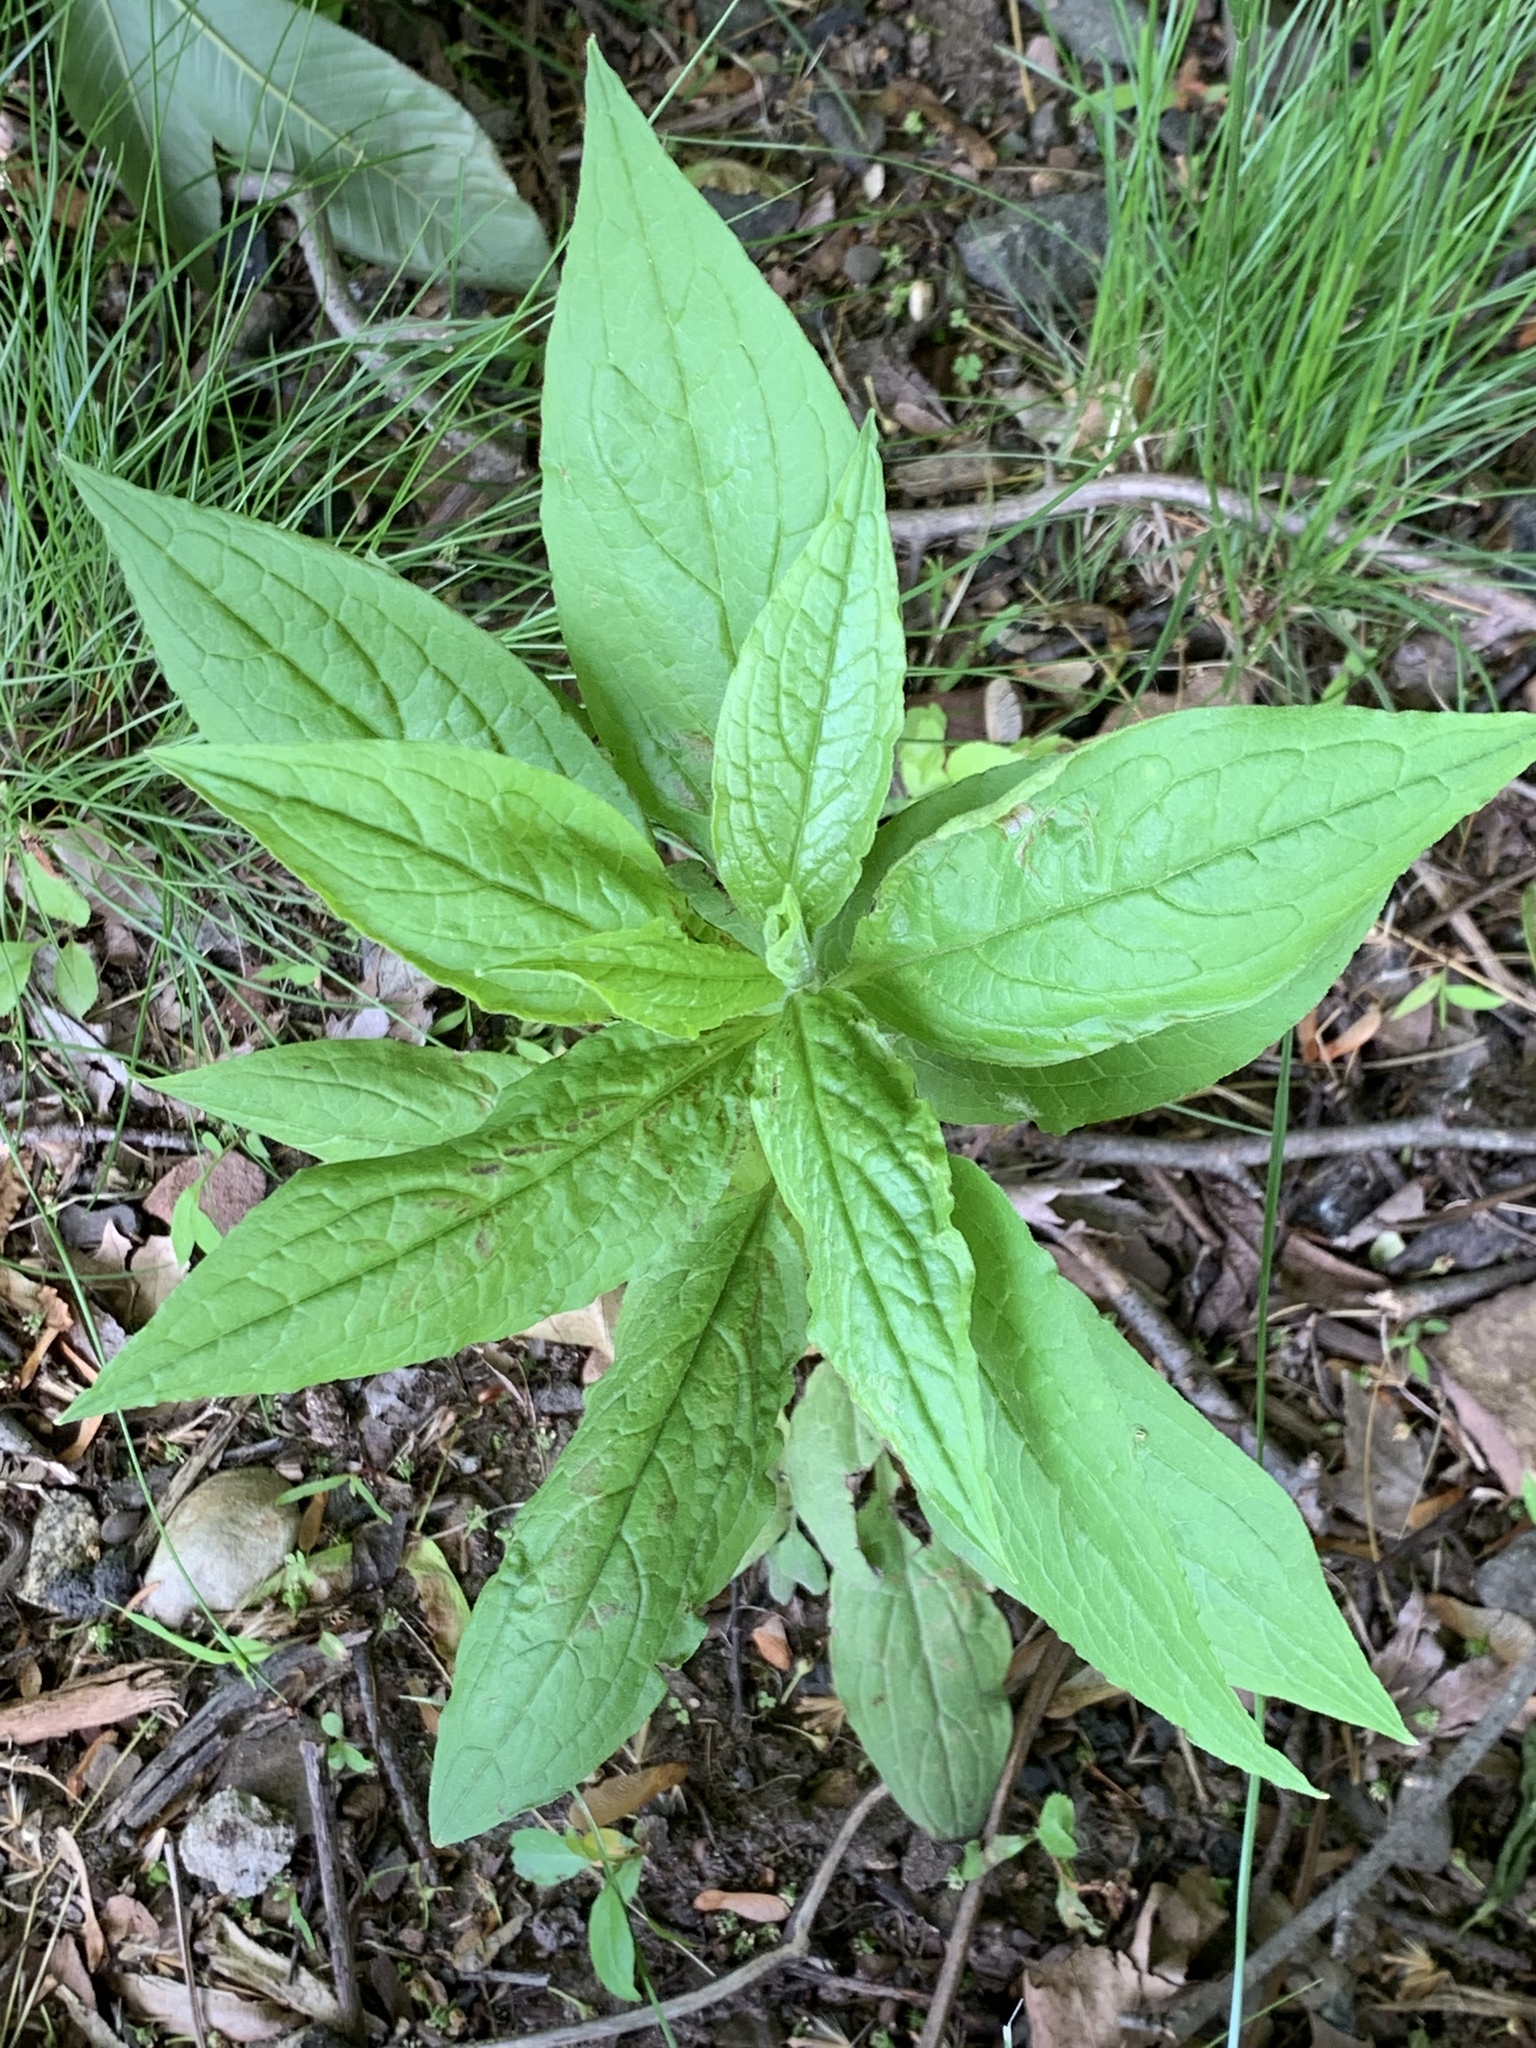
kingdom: Plantae
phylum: Tracheophyta
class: Magnoliopsida
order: Boraginales
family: Boraginaceae
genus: Hackelia
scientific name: Hackelia virginiana
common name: Beggar's-lice
